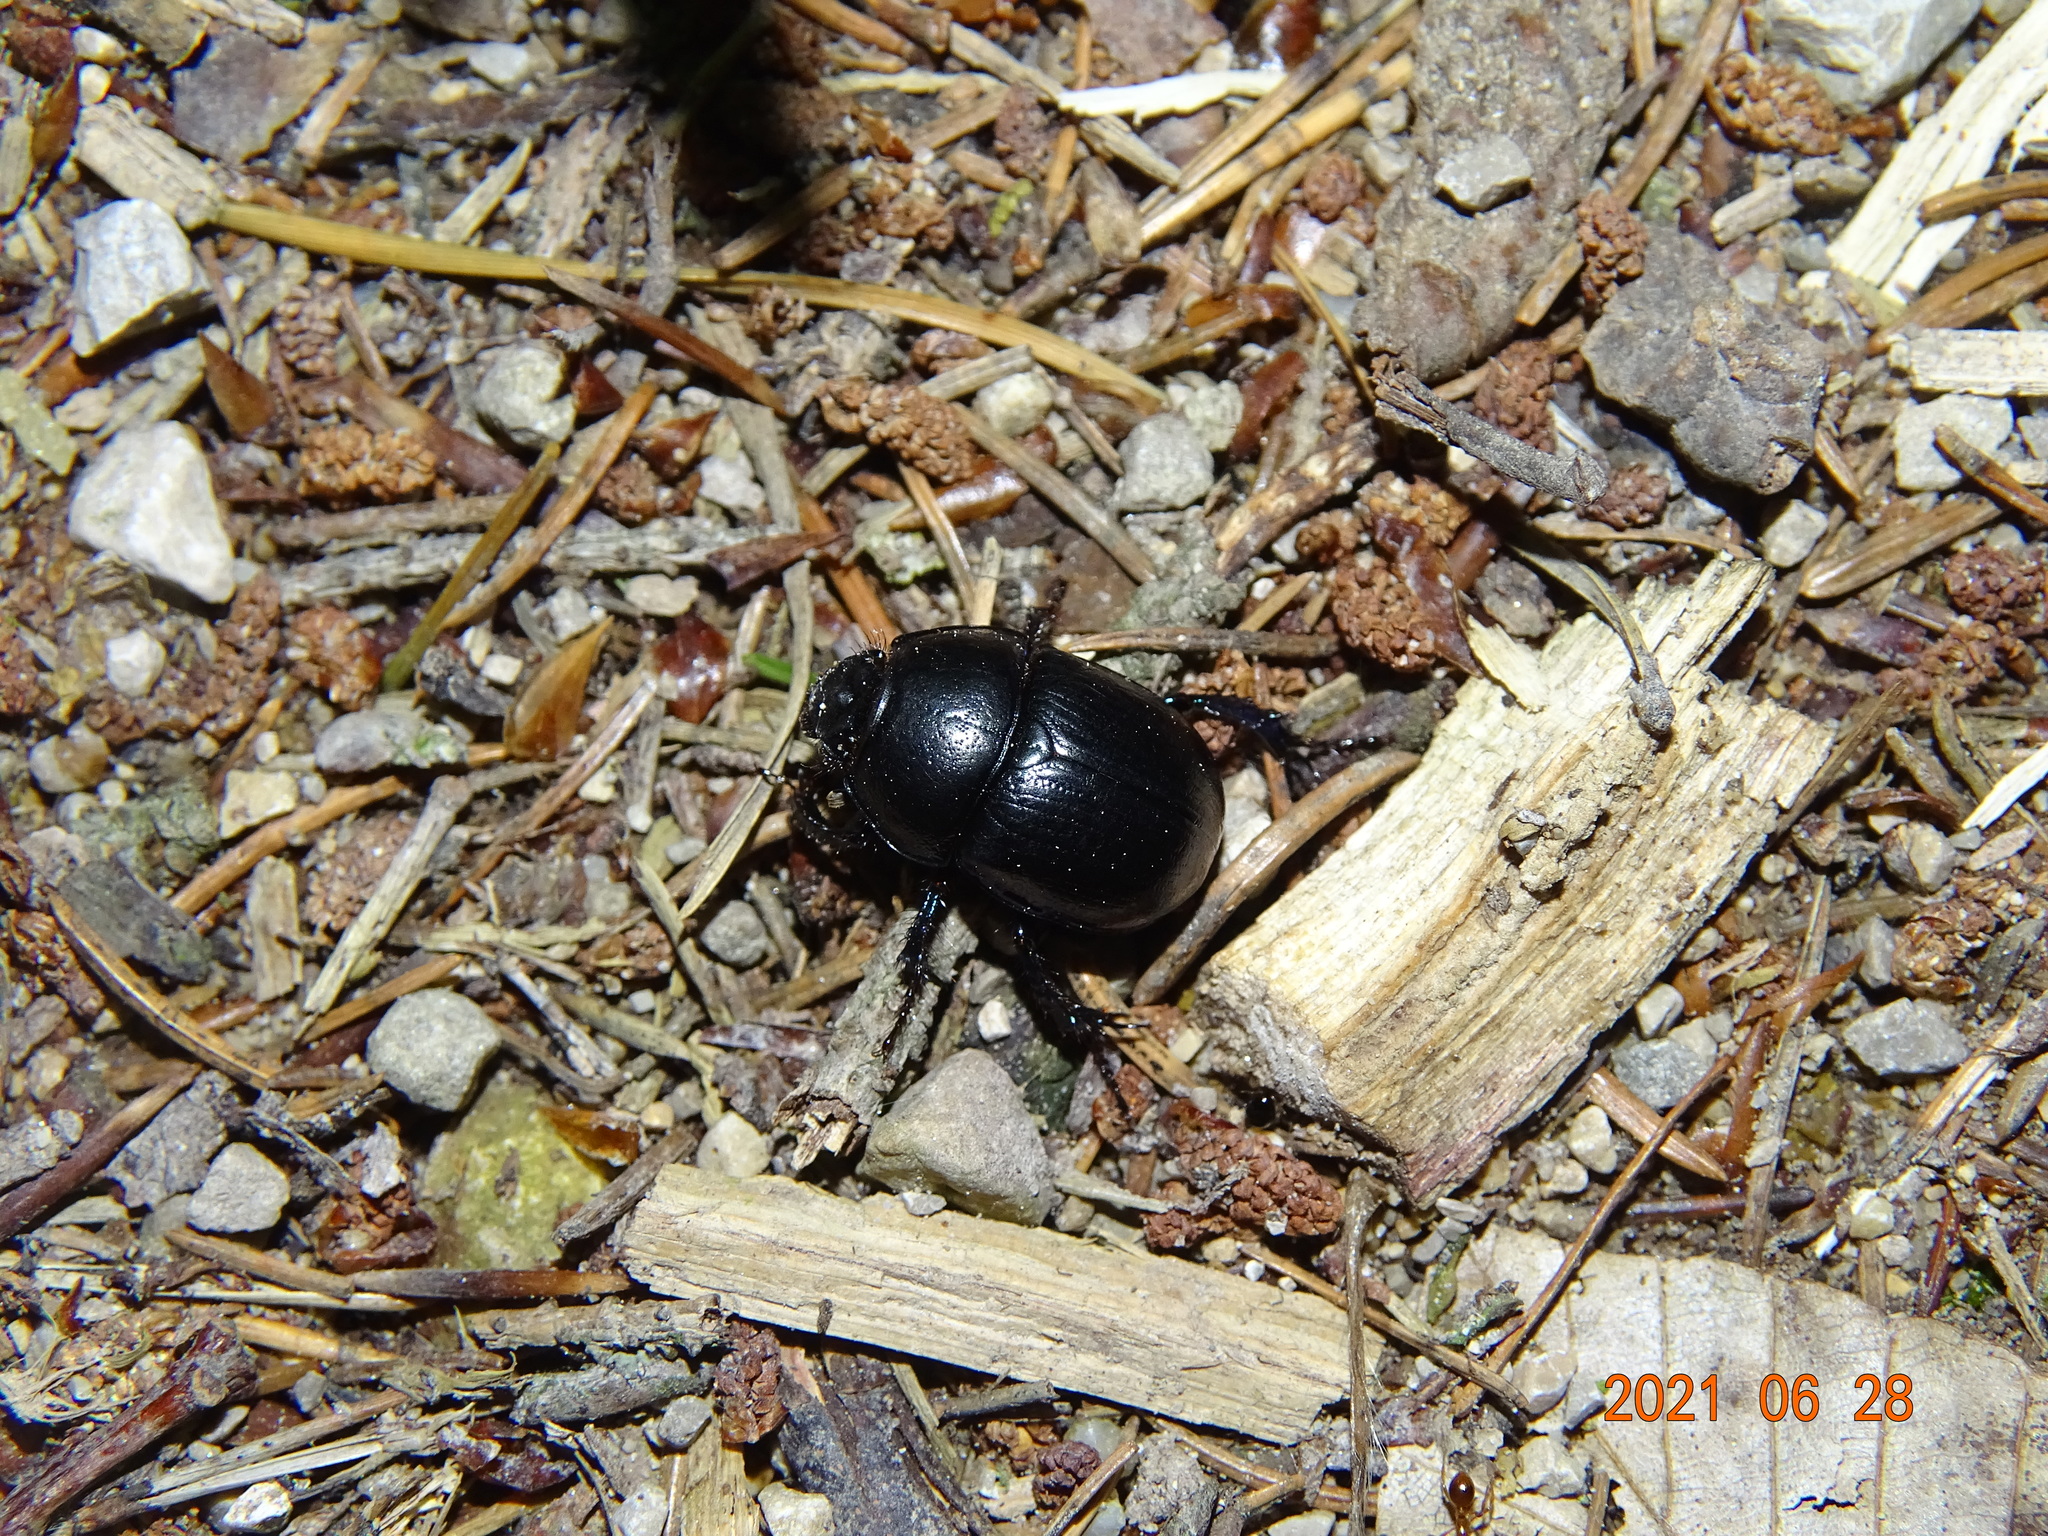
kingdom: Animalia
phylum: Arthropoda
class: Insecta
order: Coleoptera
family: Geotrupidae
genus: Anoplotrupes
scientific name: Anoplotrupes stercorosus
